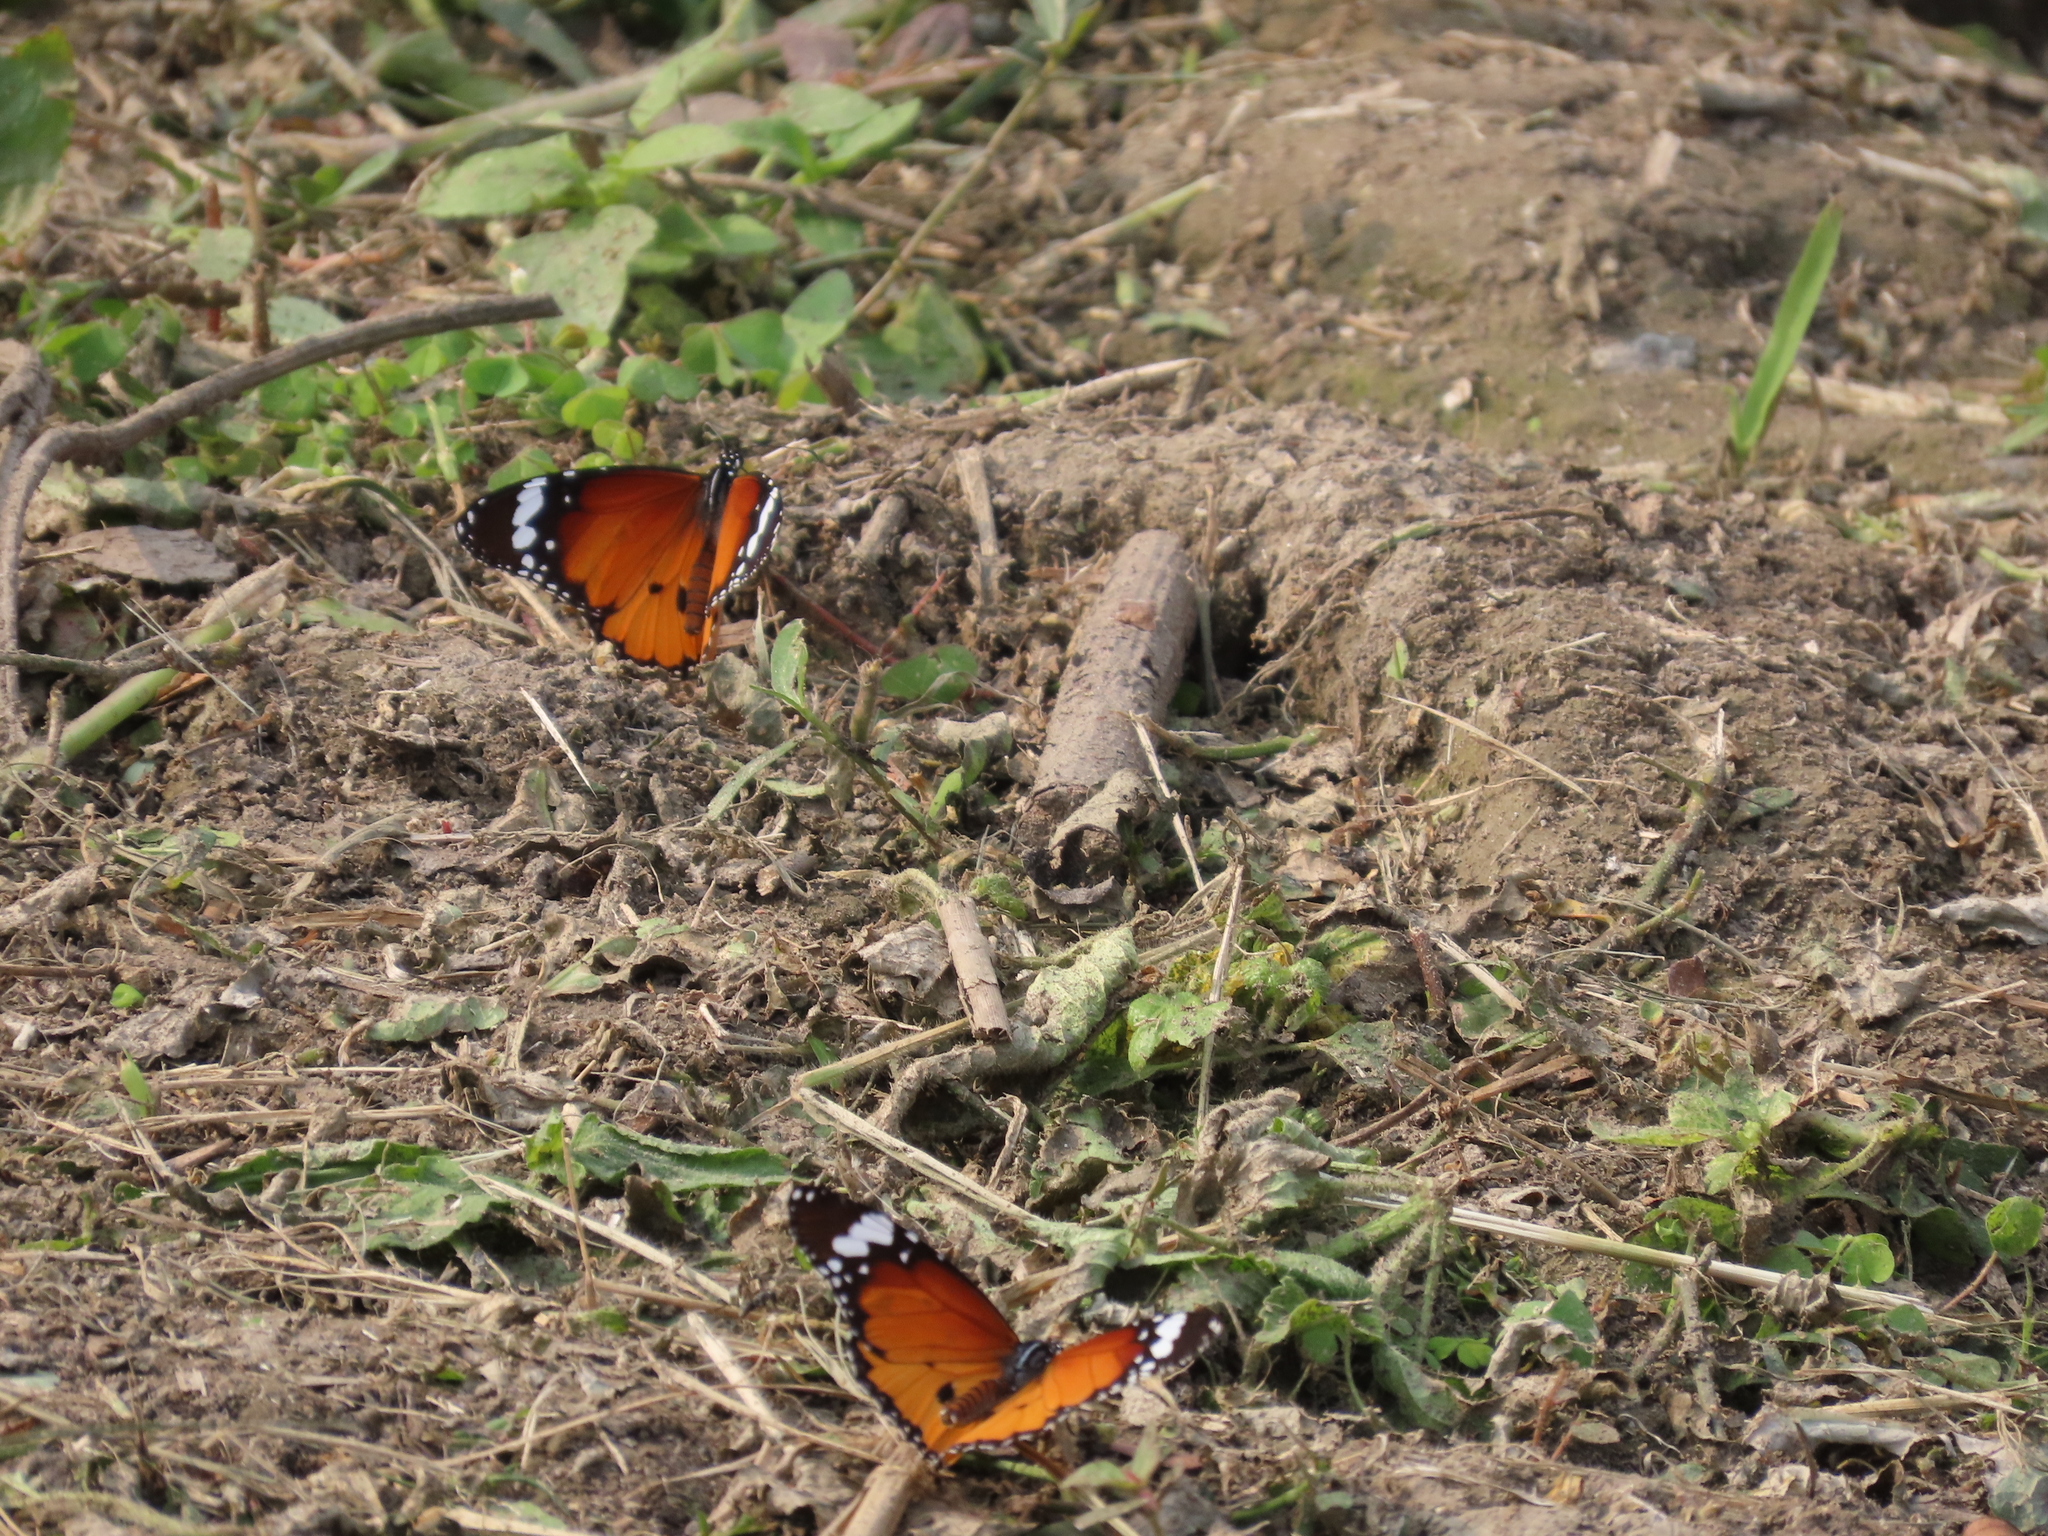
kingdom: Animalia
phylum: Arthropoda
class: Insecta
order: Lepidoptera
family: Nymphalidae
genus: Danaus
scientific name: Danaus chrysippus
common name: Plain tiger
